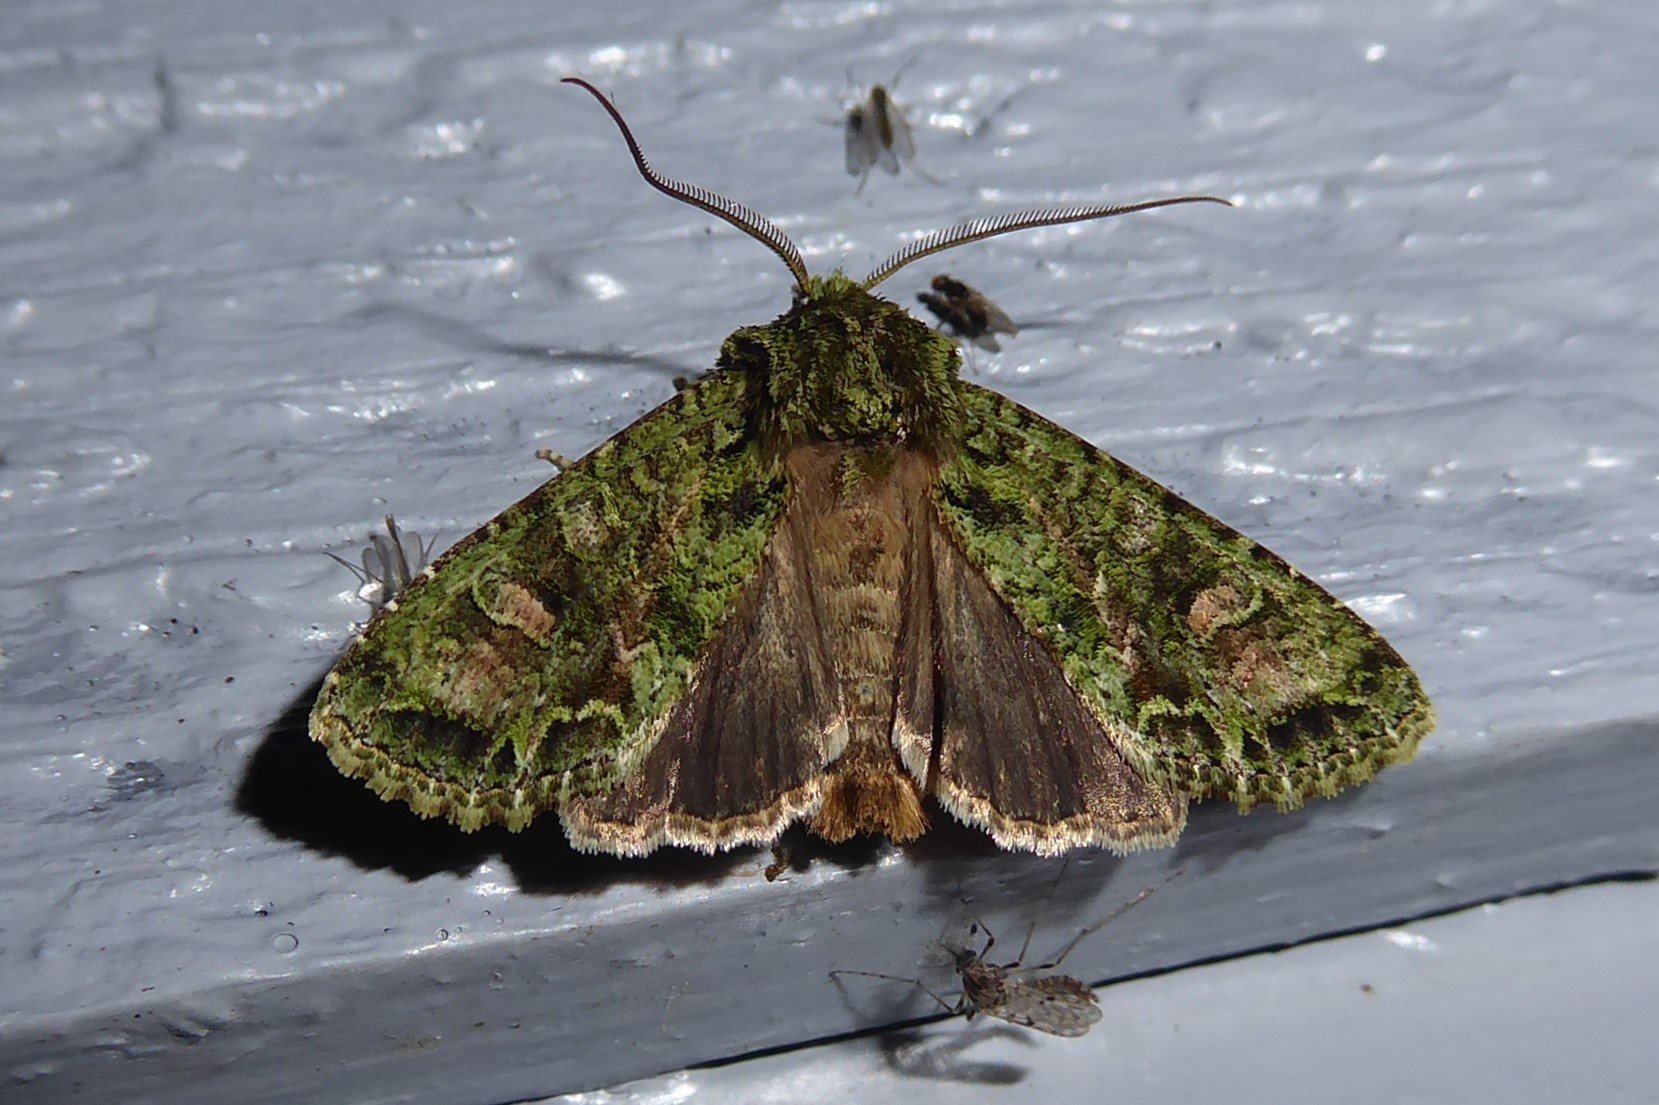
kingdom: Animalia
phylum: Arthropoda
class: Insecta
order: Lepidoptera
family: Noctuidae
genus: Ichneutica
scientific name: Ichneutica
